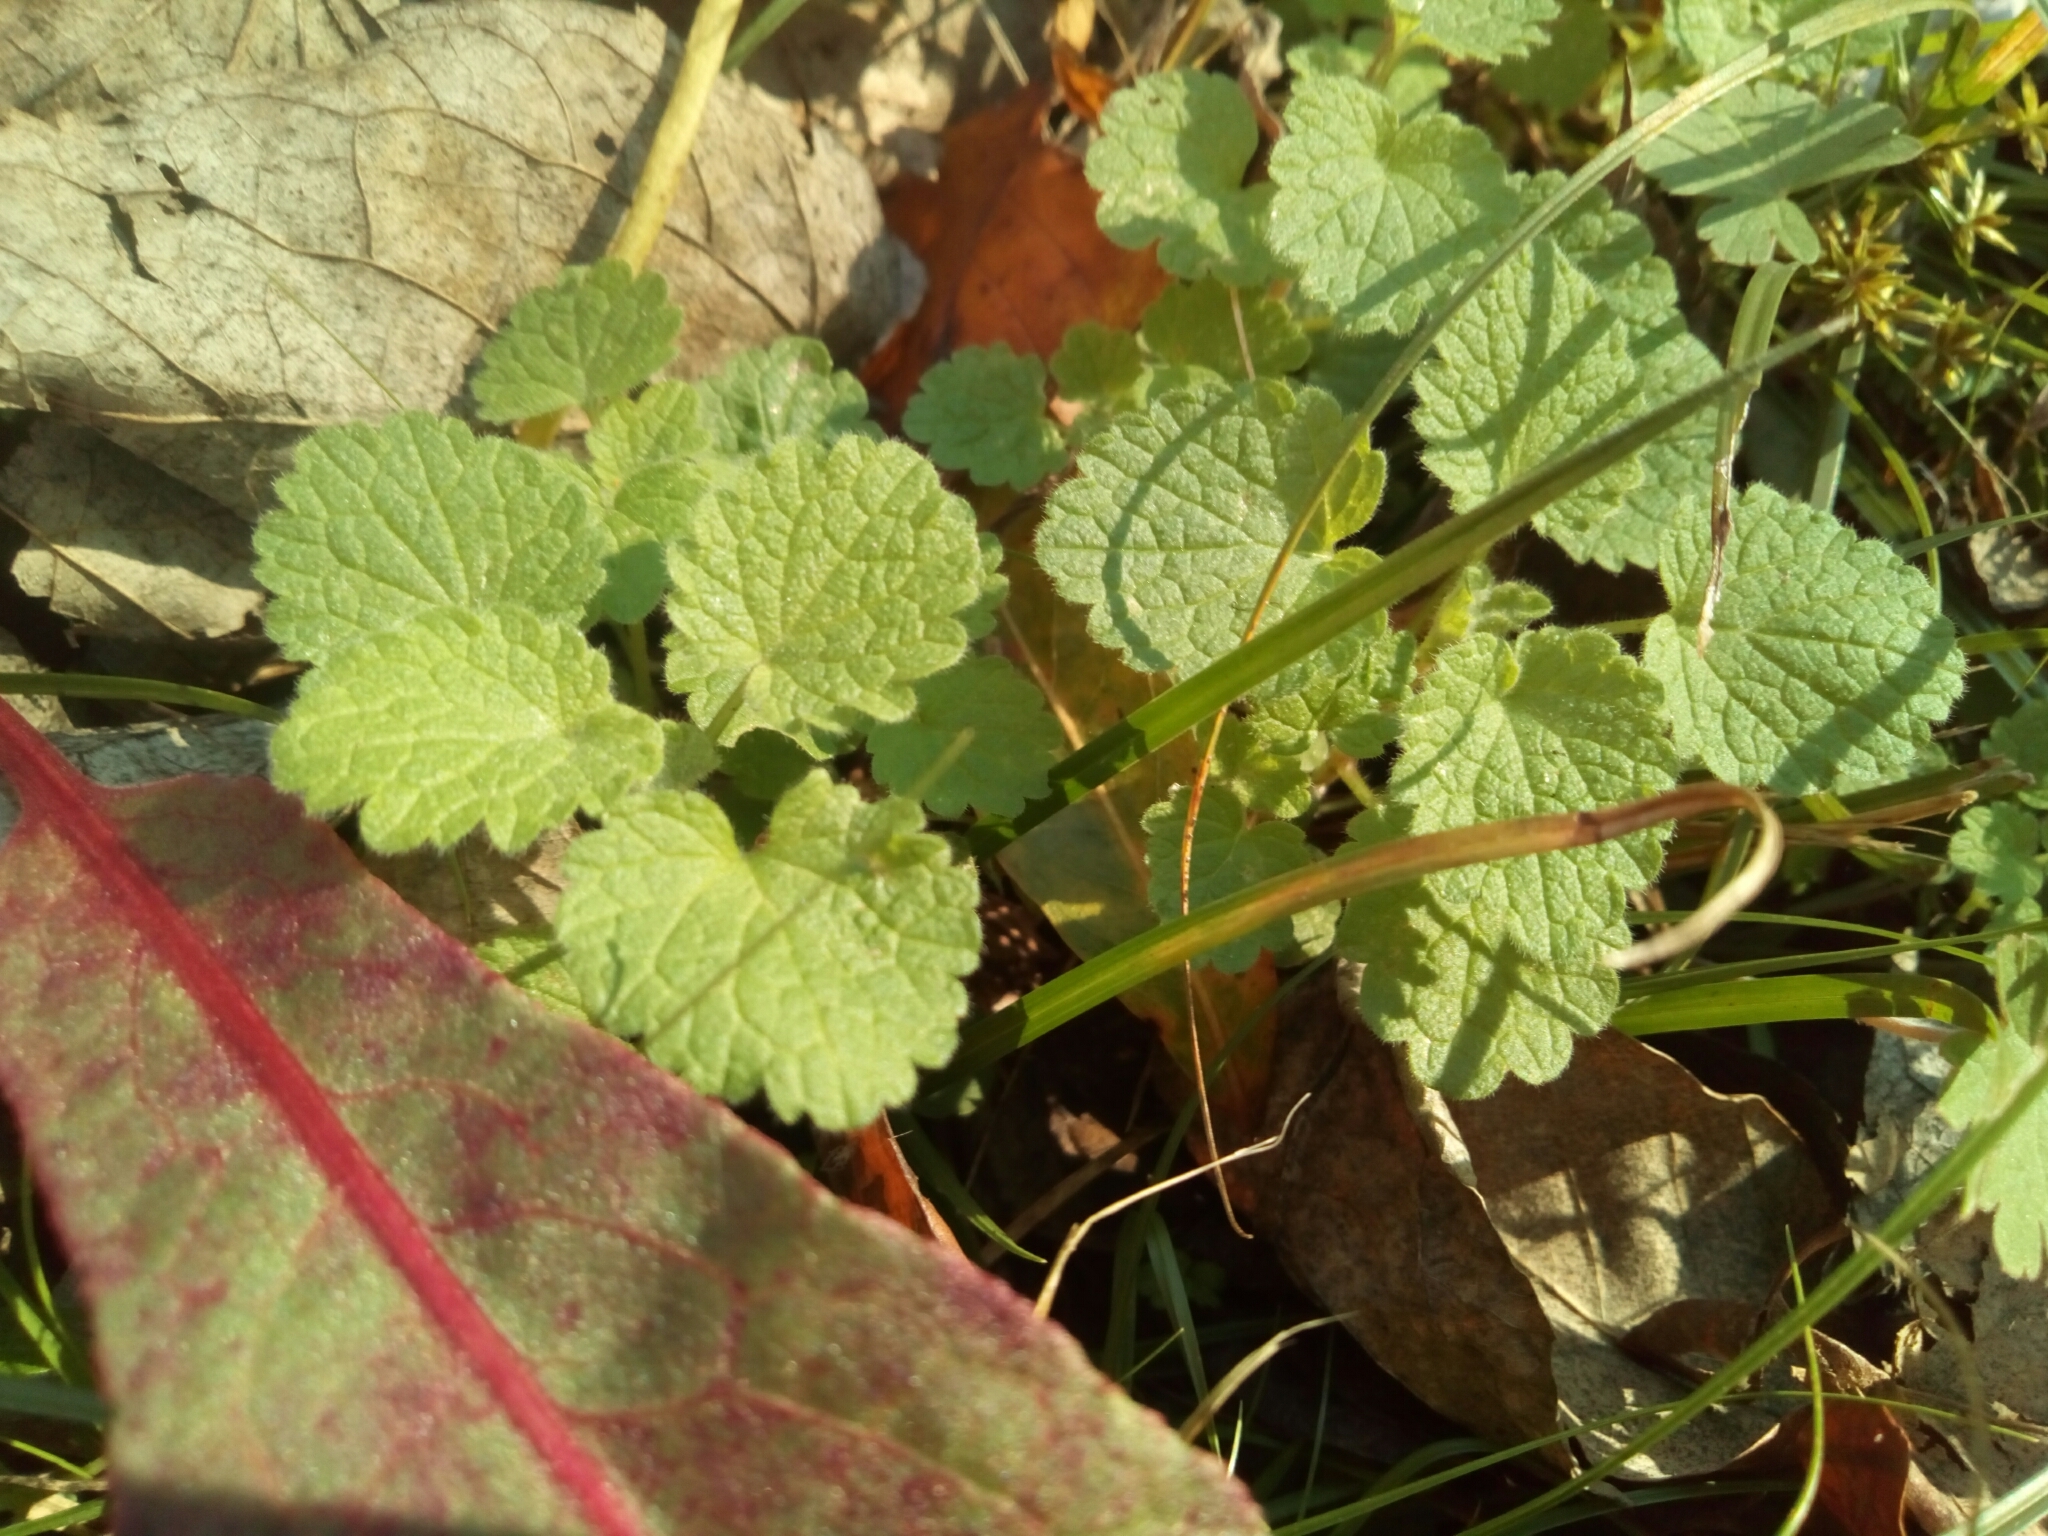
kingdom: Plantae
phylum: Tracheophyta
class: Magnoliopsida
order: Lamiales
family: Lamiaceae
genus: Lamium
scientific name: Lamium purpureum
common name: Red dead-nettle
